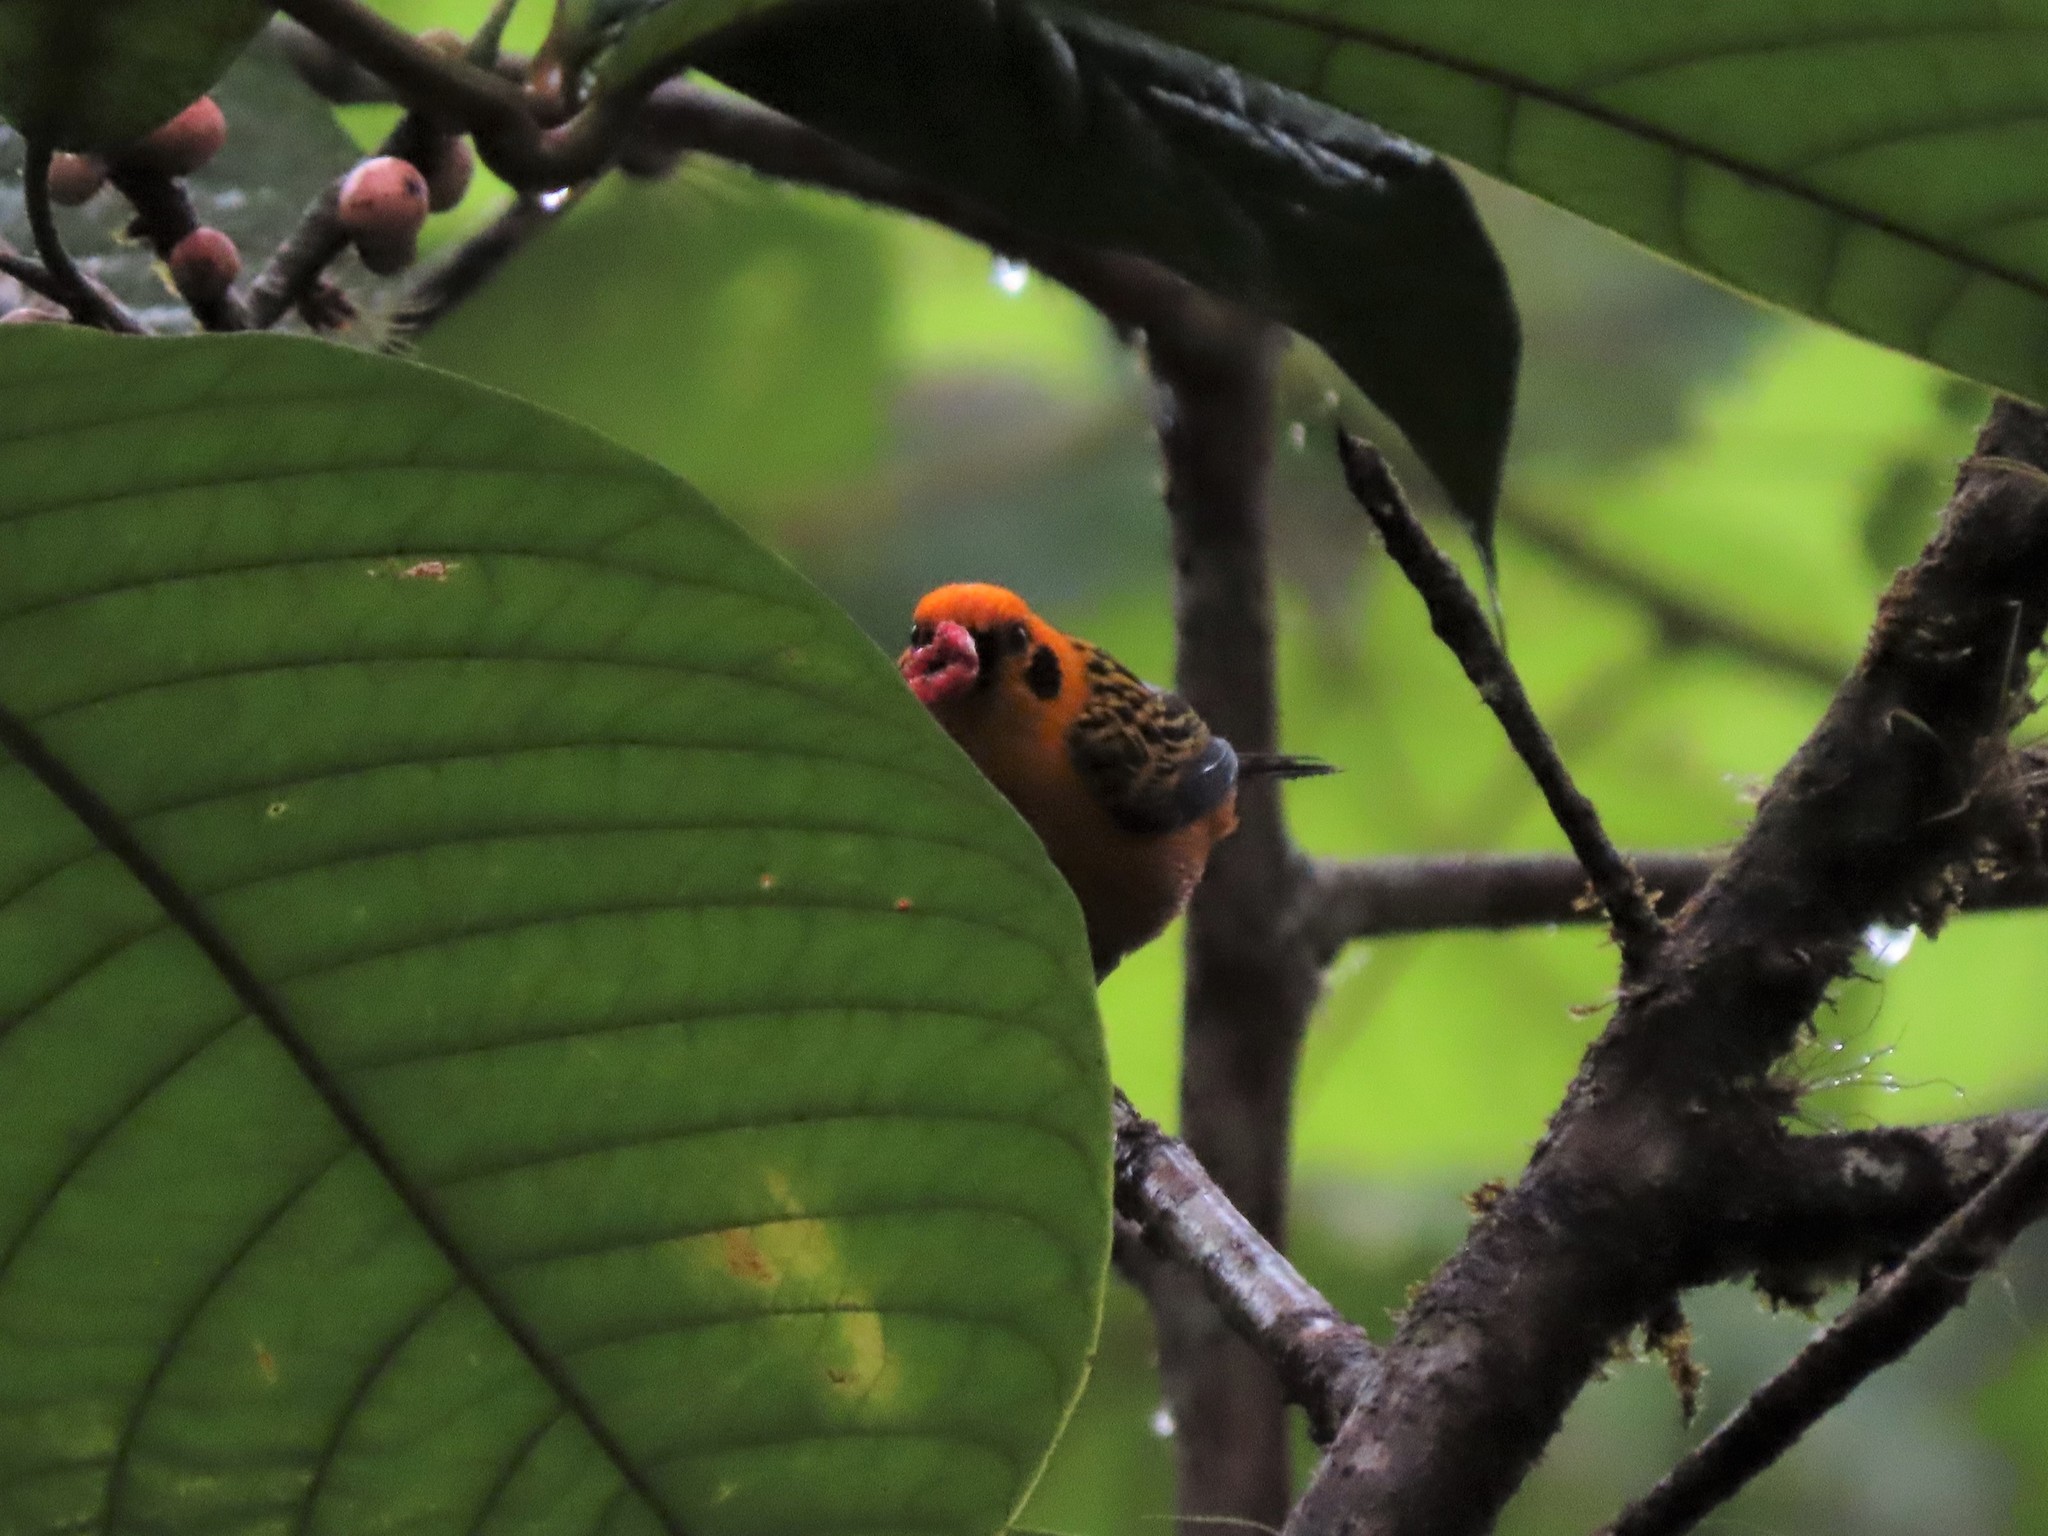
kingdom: Animalia
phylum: Chordata
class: Aves
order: Passeriformes
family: Thraupidae
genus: Tangara
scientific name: Tangara arthus
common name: Golden tanager
